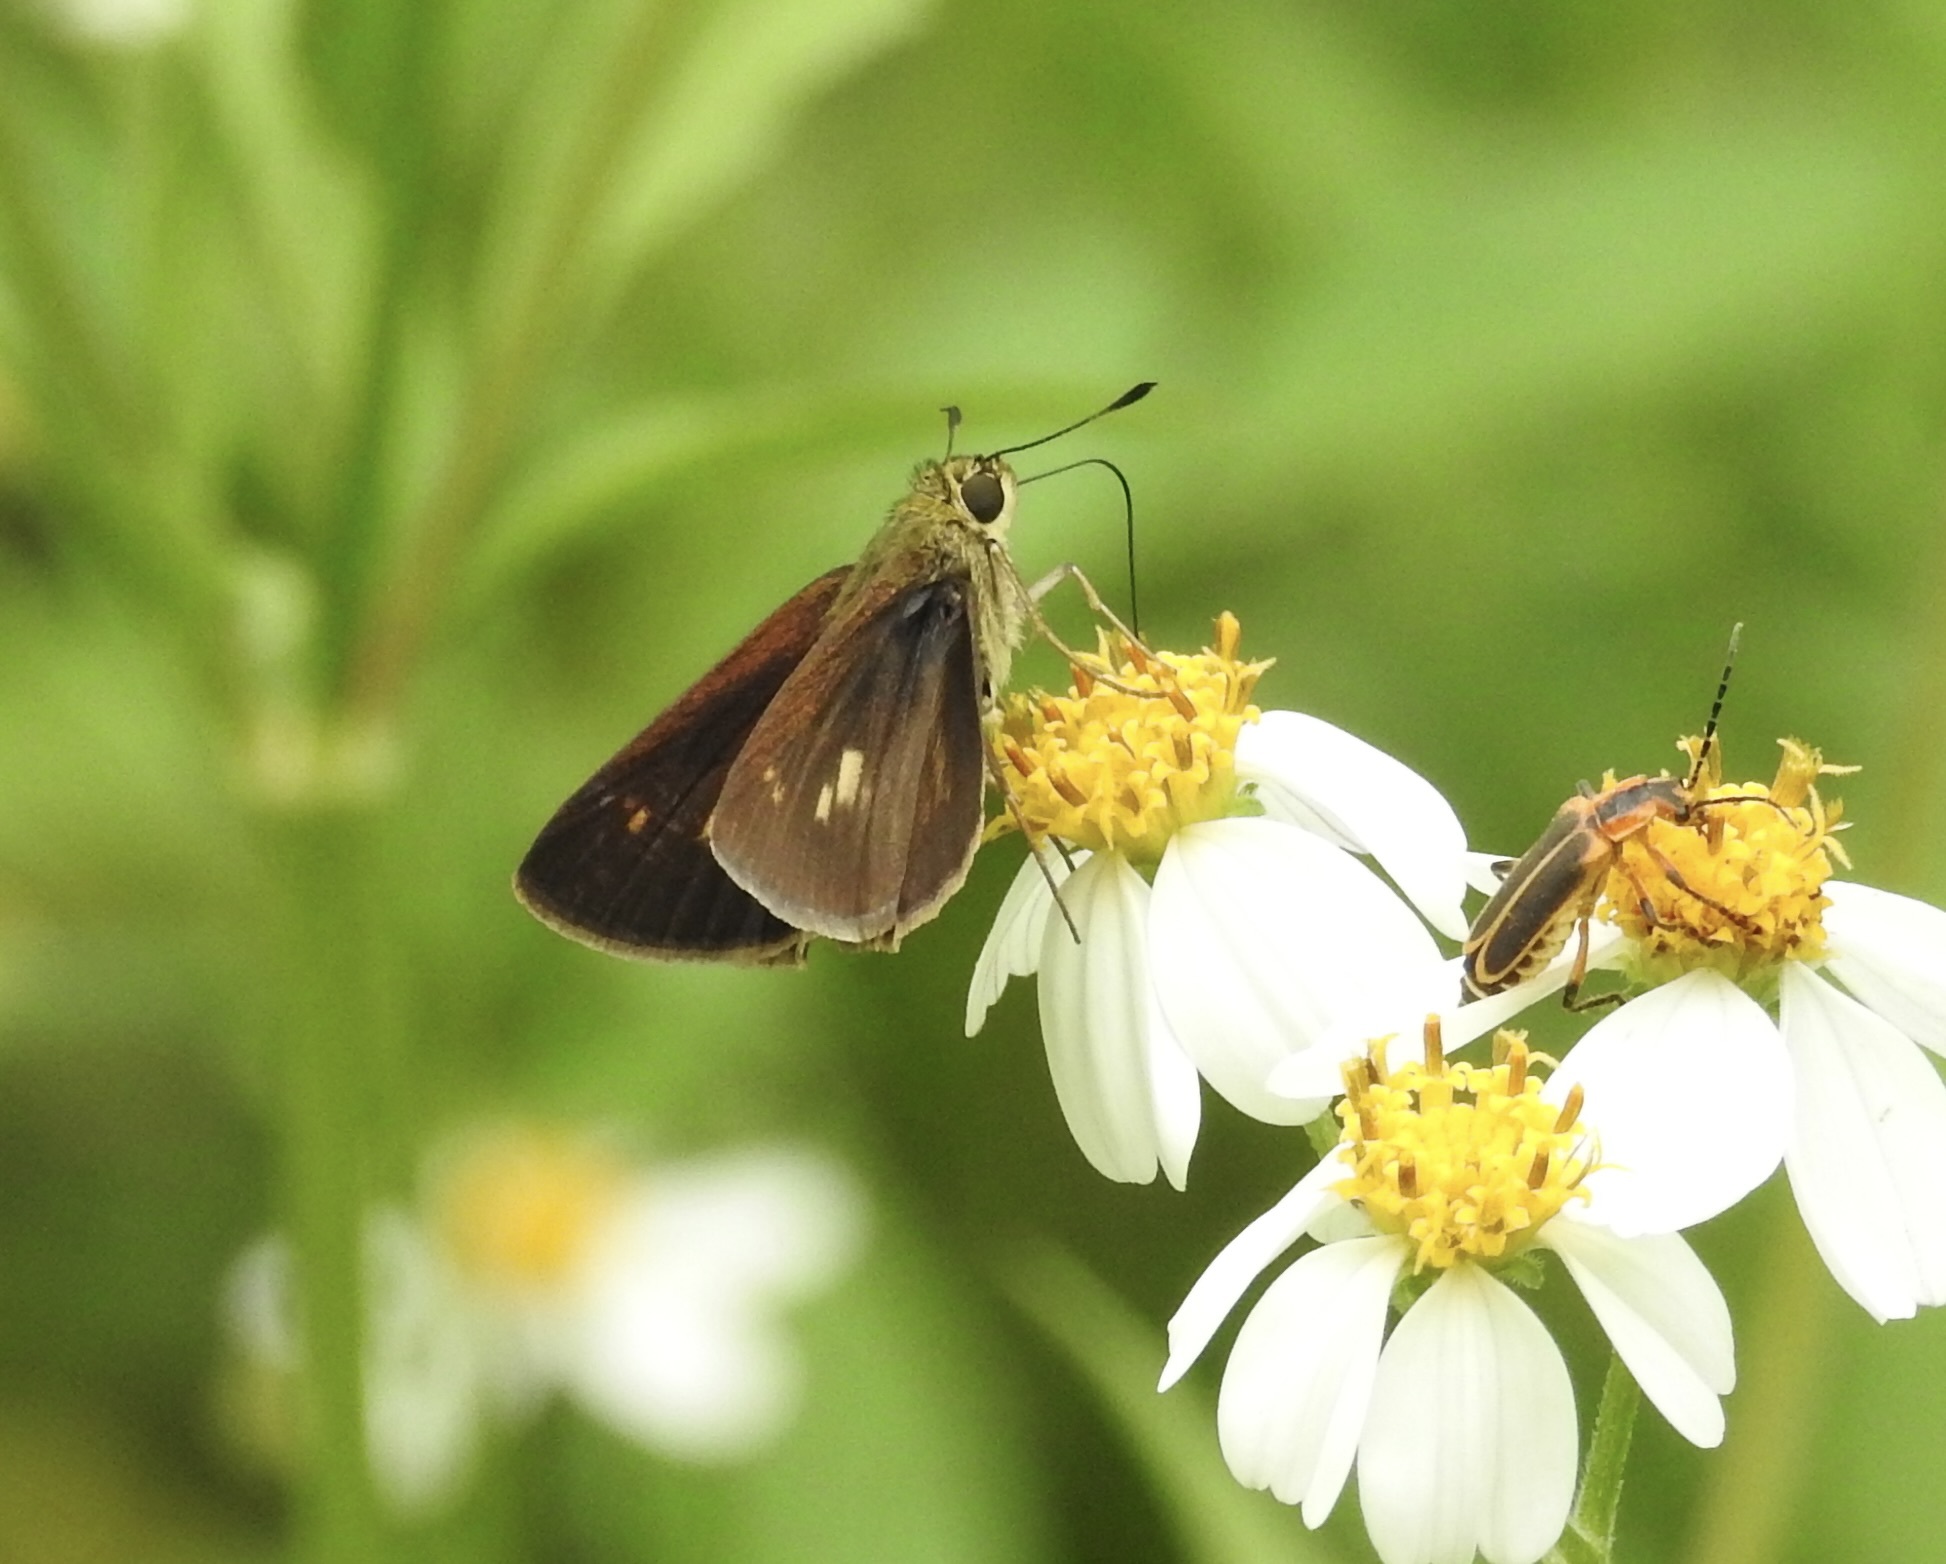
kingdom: Animalia
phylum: Arthropoda
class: Insecta
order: Lepidoptera
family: Hesperiidae
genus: Polites
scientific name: Polites egeremet
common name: Northern broken-dash
